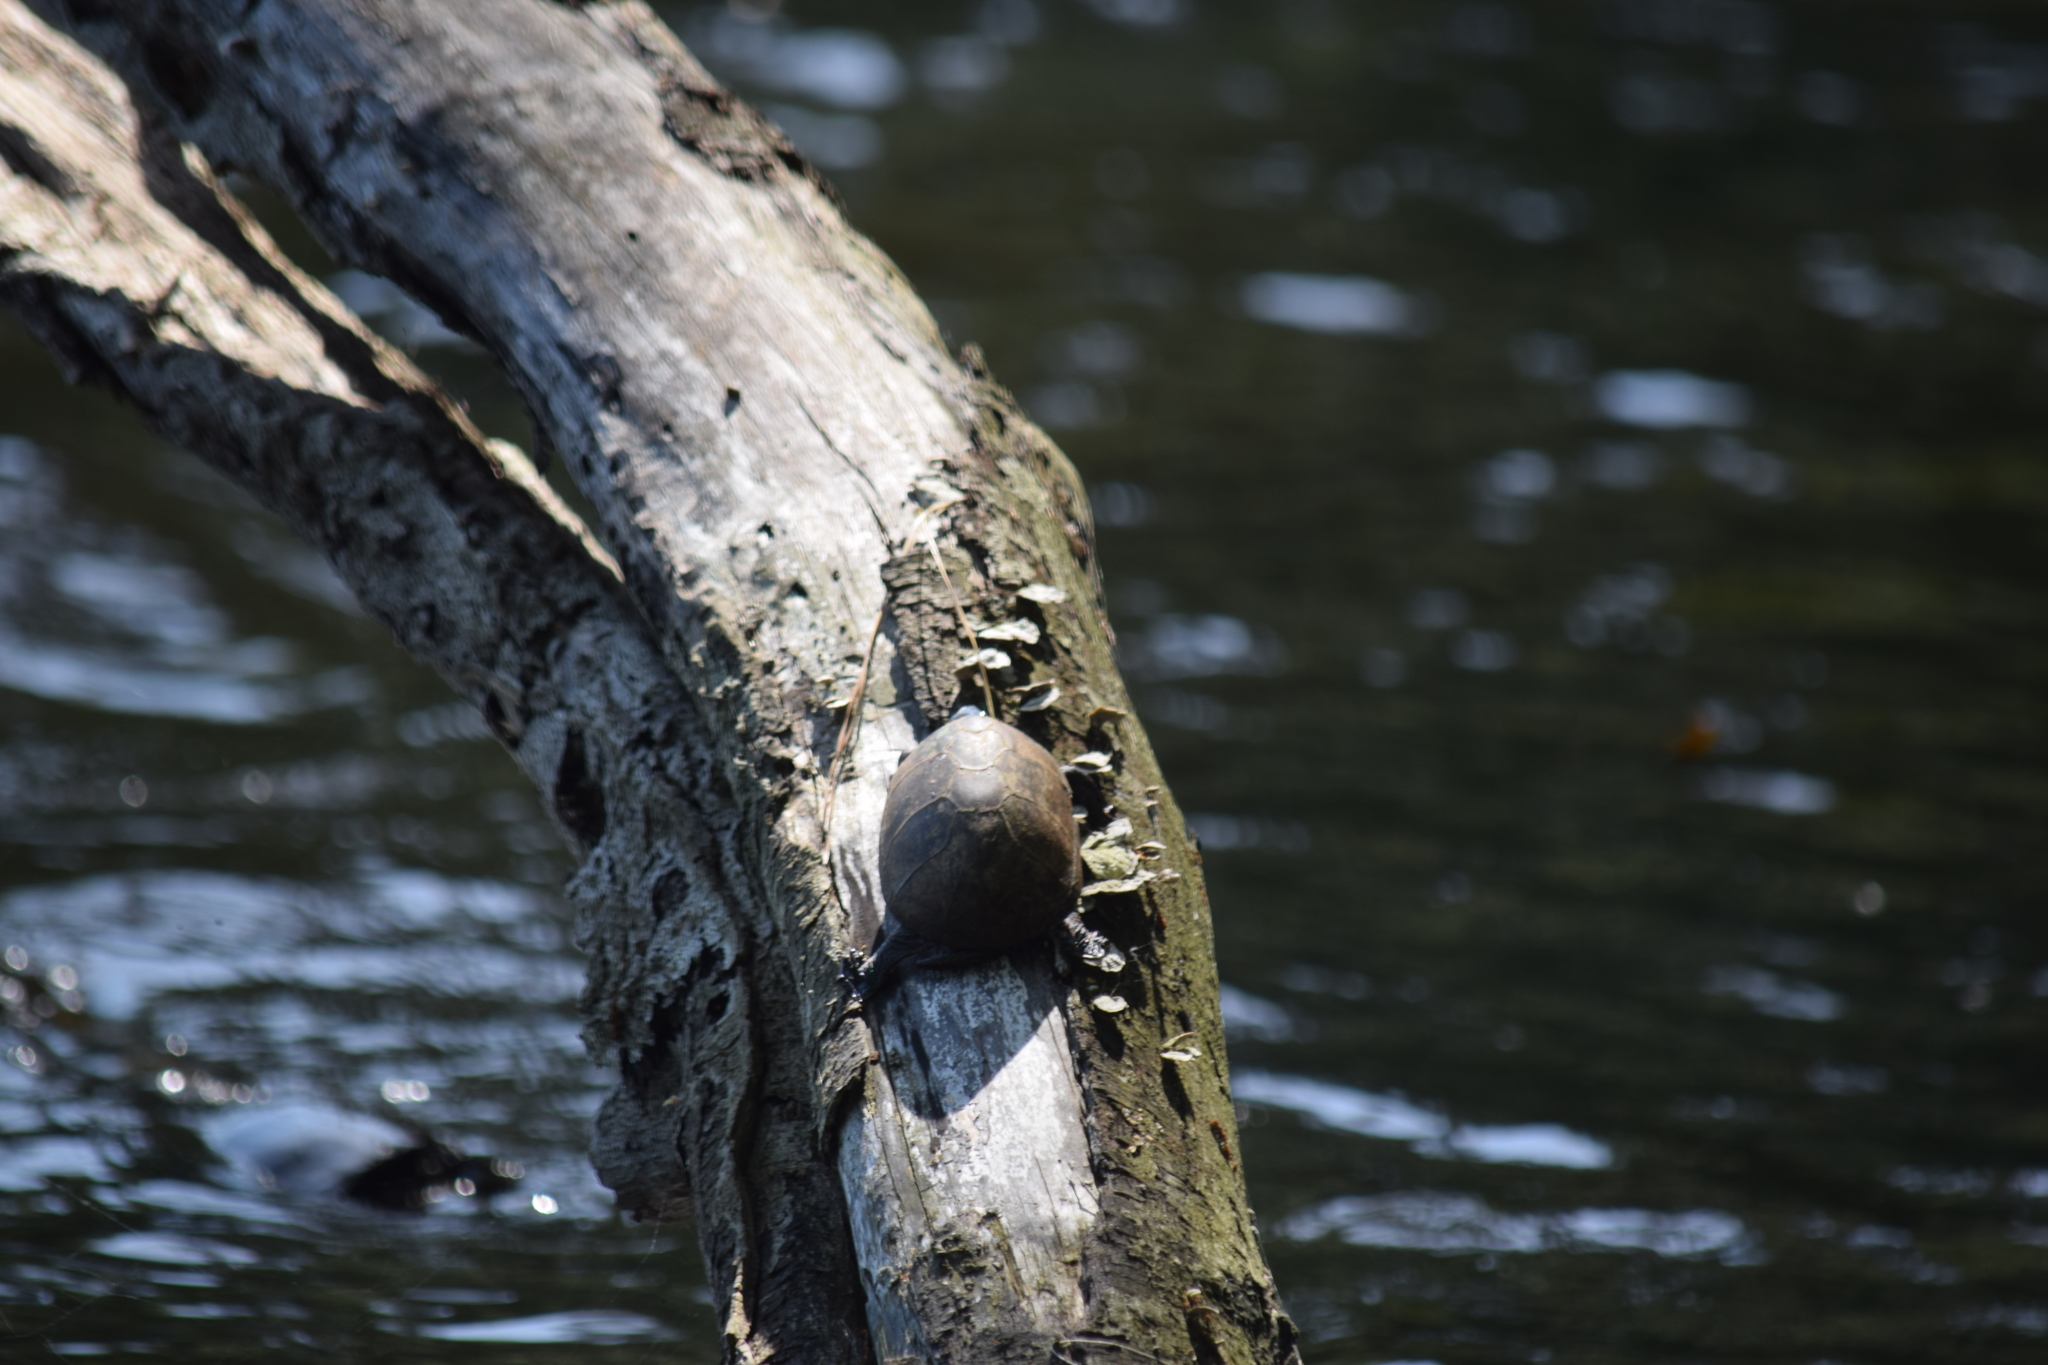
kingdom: Animalia
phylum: Chordata
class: Testudines
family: Kinosternidae
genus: Sternotherus
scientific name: Sternotherus odoratus
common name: Common musk turtle
